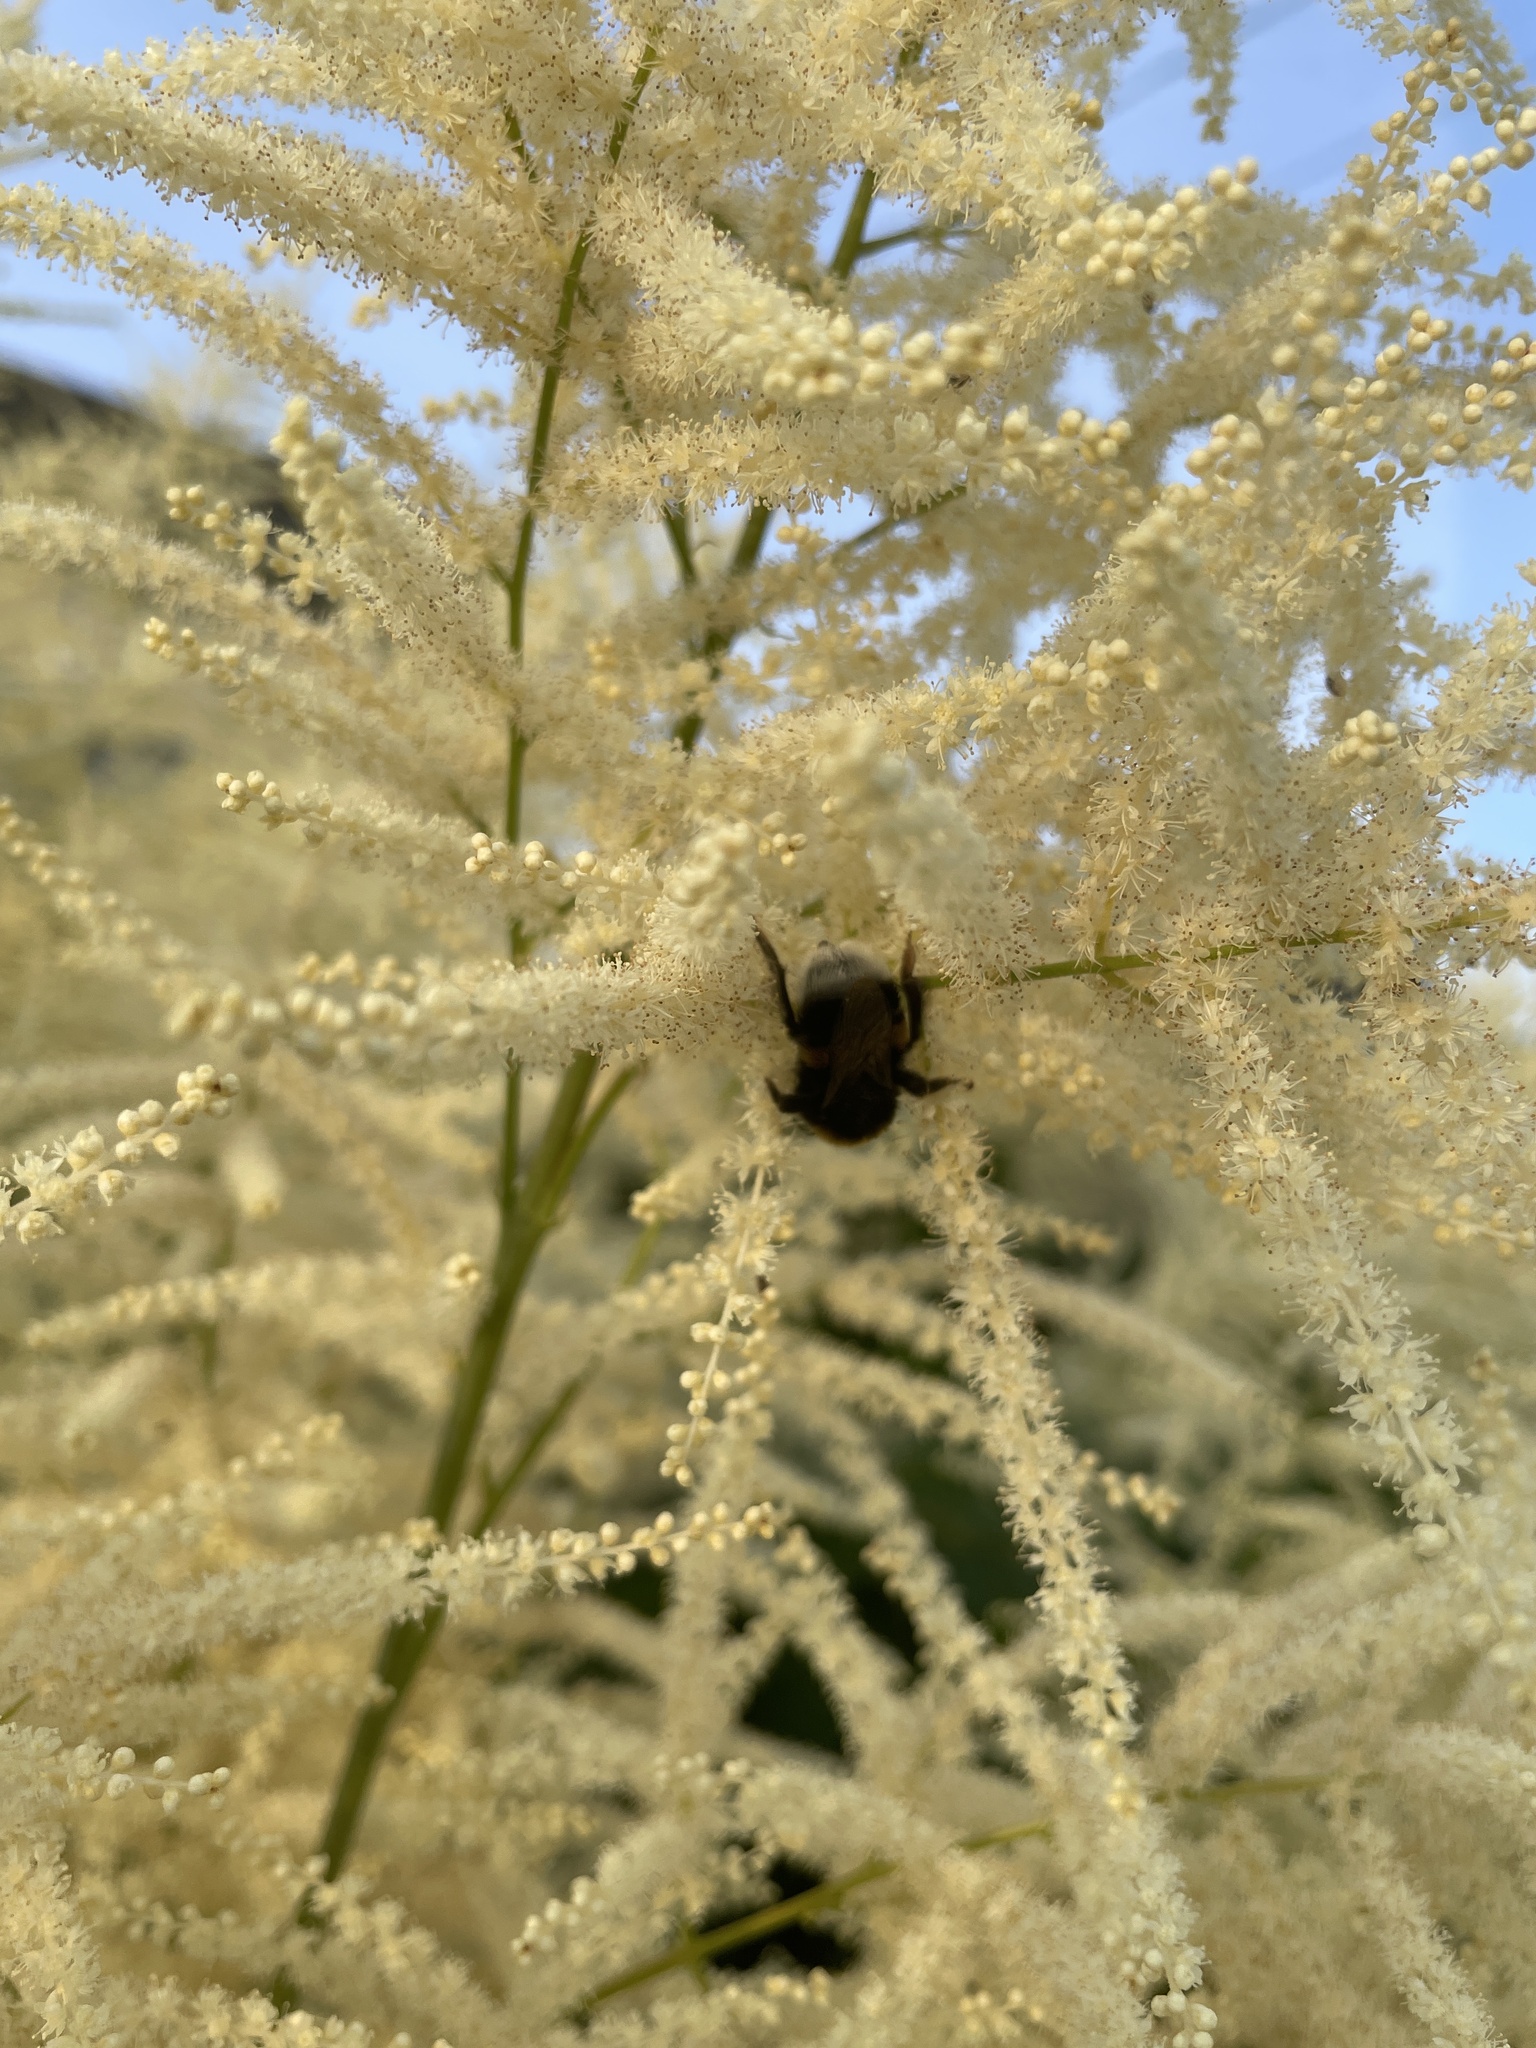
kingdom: Animalia
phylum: Arthropoda
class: Insecta
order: Hymenoptera
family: Apidae
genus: Bombus
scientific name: Bombus
